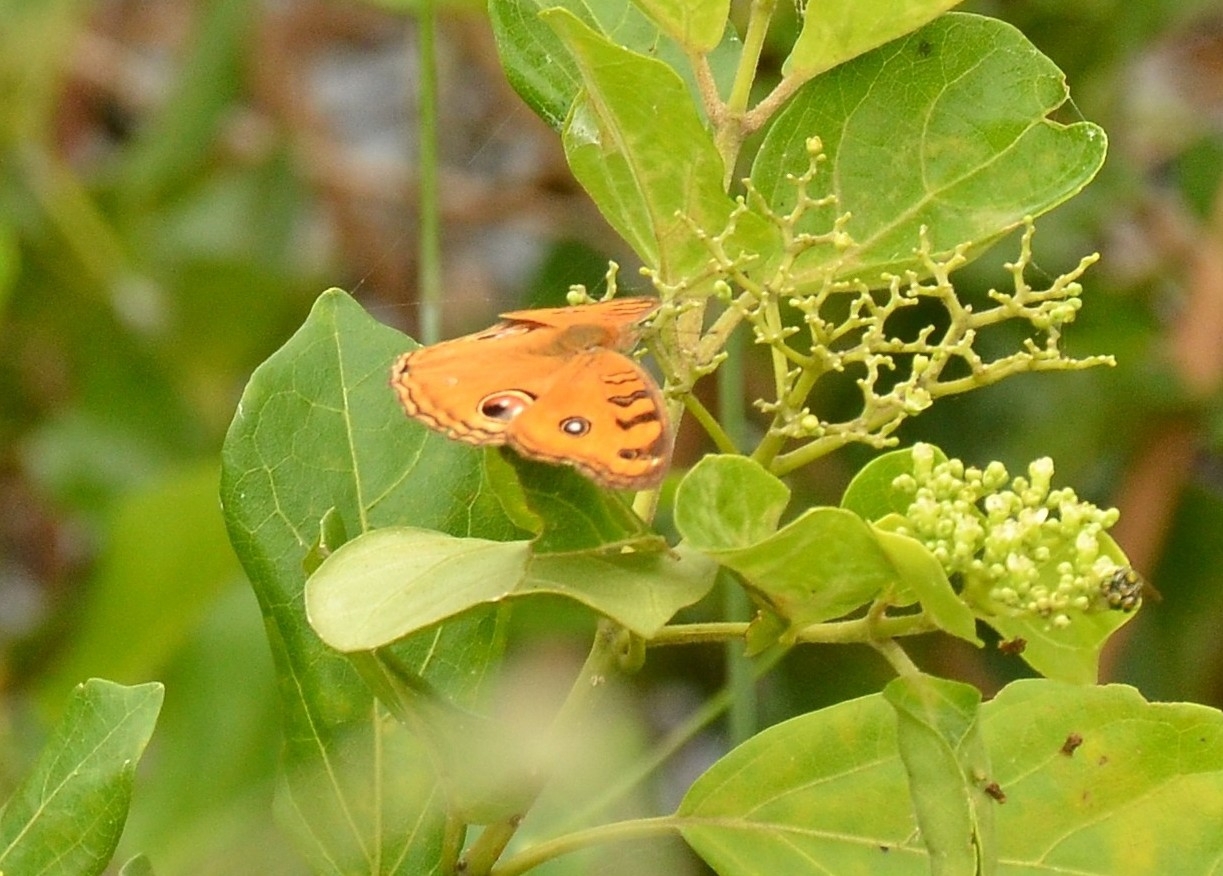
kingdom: Animalia
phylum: Arthropoda
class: Insecta
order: Lepidoptera
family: Nymphalidae
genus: Junonia
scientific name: Junonia almana
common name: Peacock pansy
